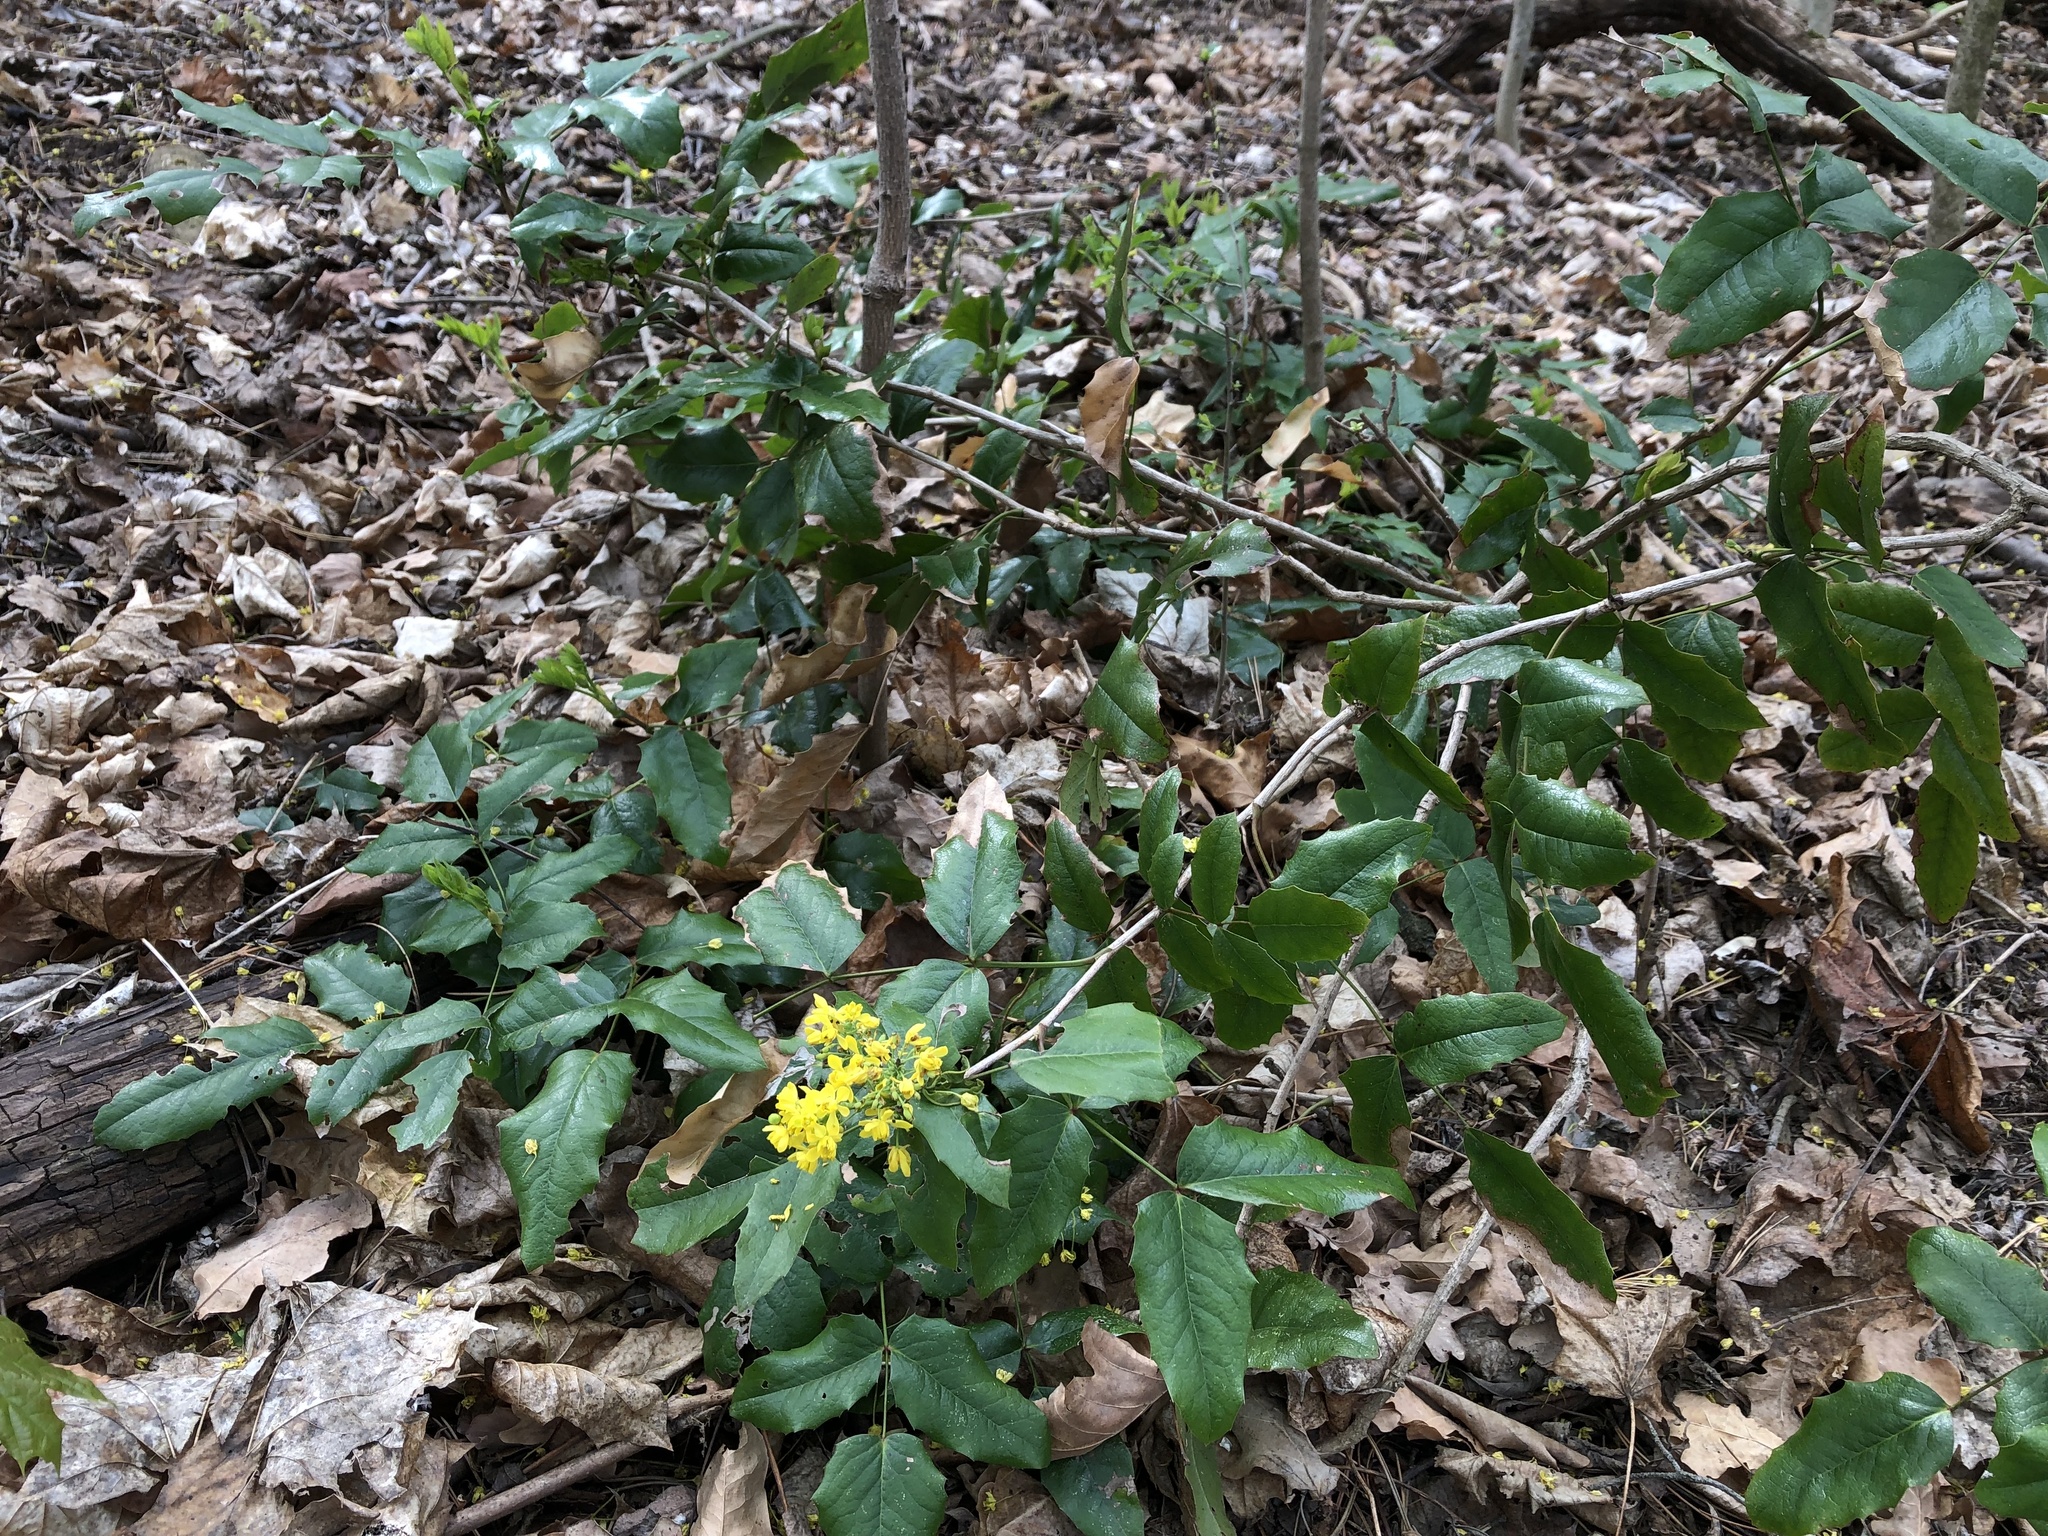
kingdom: Plantae
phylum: Tracheophyta
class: Magnoliopsida
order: Ranunculales
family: Berberidaceae
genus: Mahonia
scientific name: Mahonia aquifolium
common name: Oregon-grape
